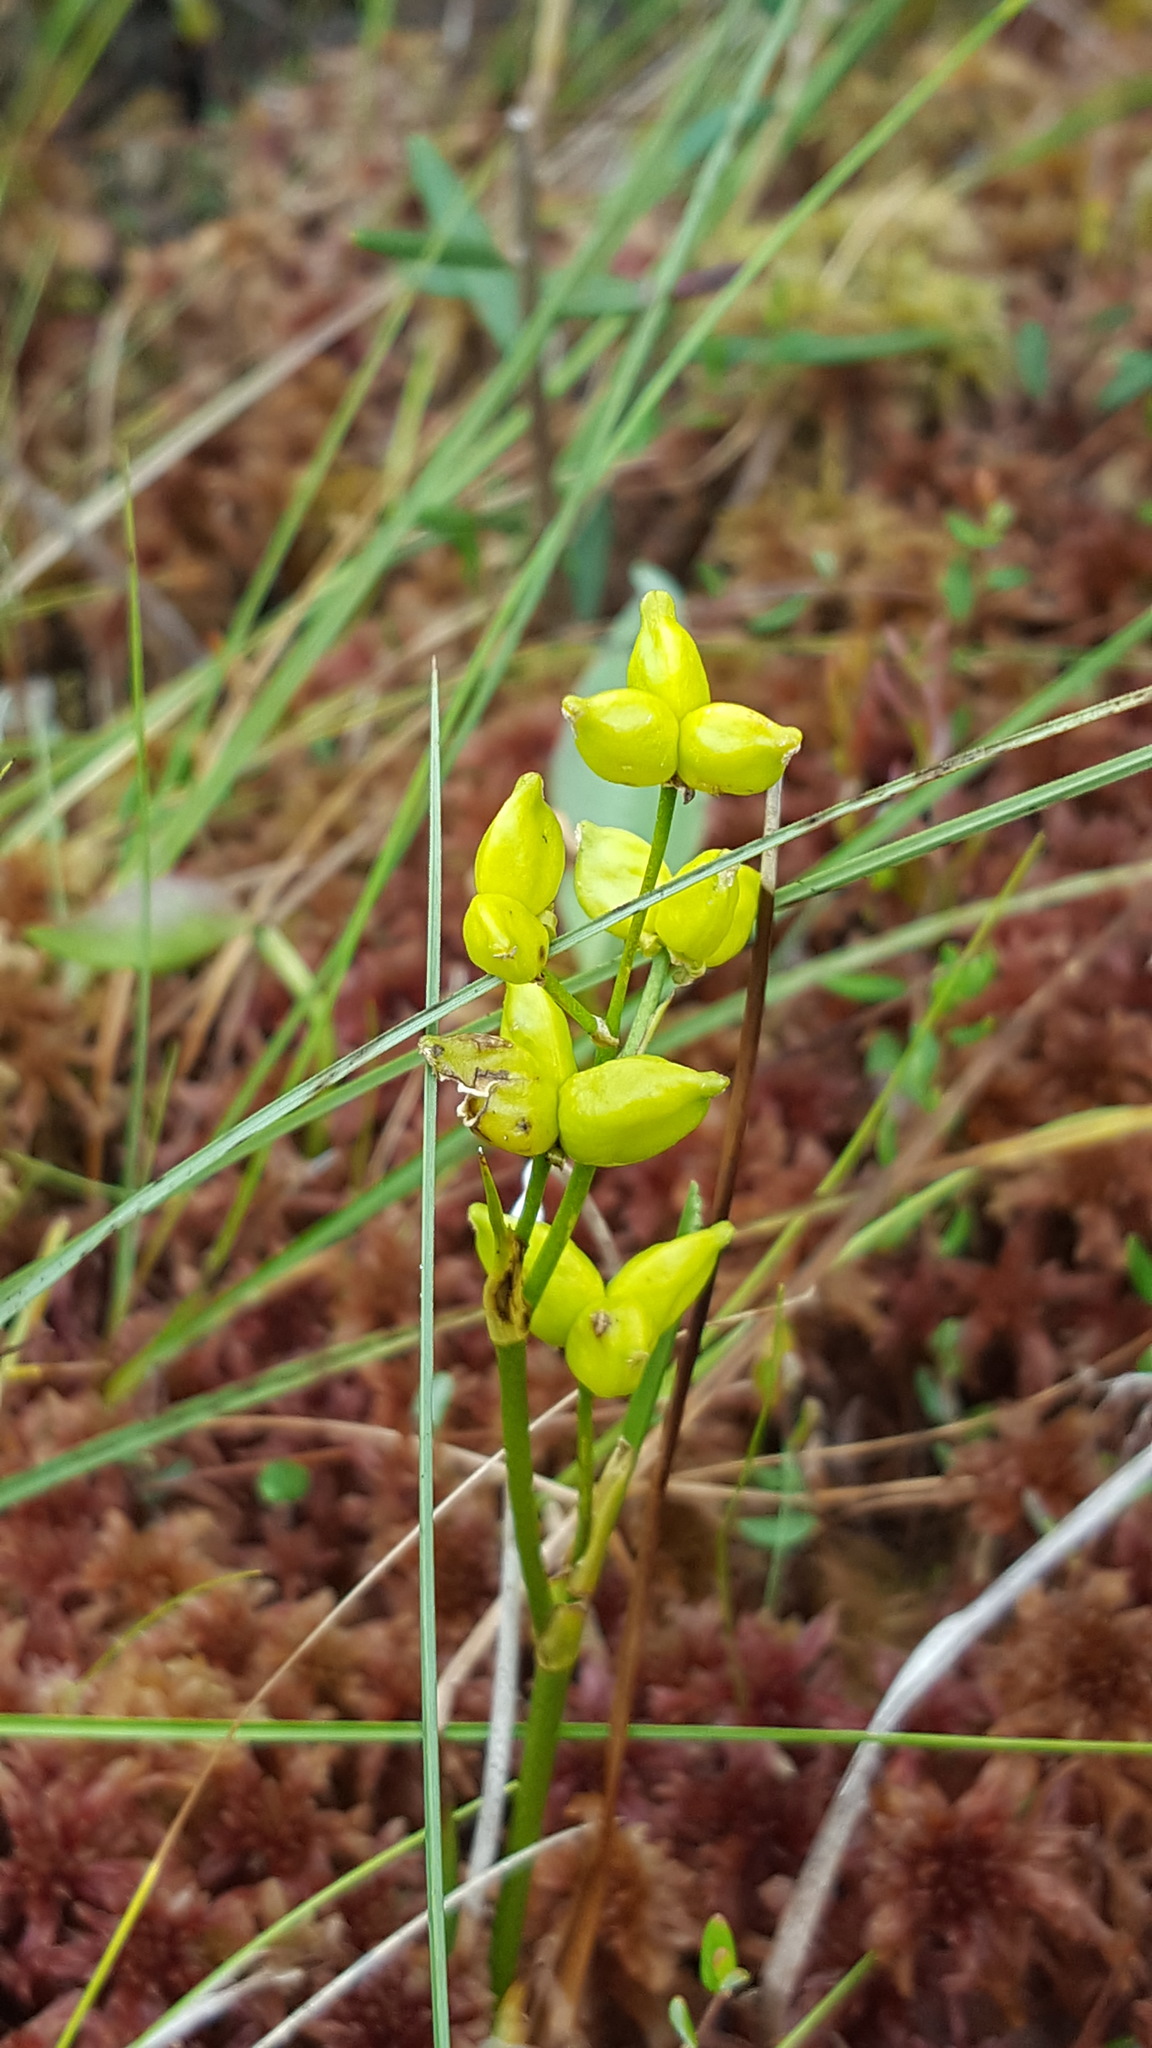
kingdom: Plantae
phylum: Tracheophyta
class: Liliopsida
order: Alismatales
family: Scheuchzeriaceae
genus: Scheuchzeria
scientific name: Scheuchzeria palustris
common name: Rannoch-rush
